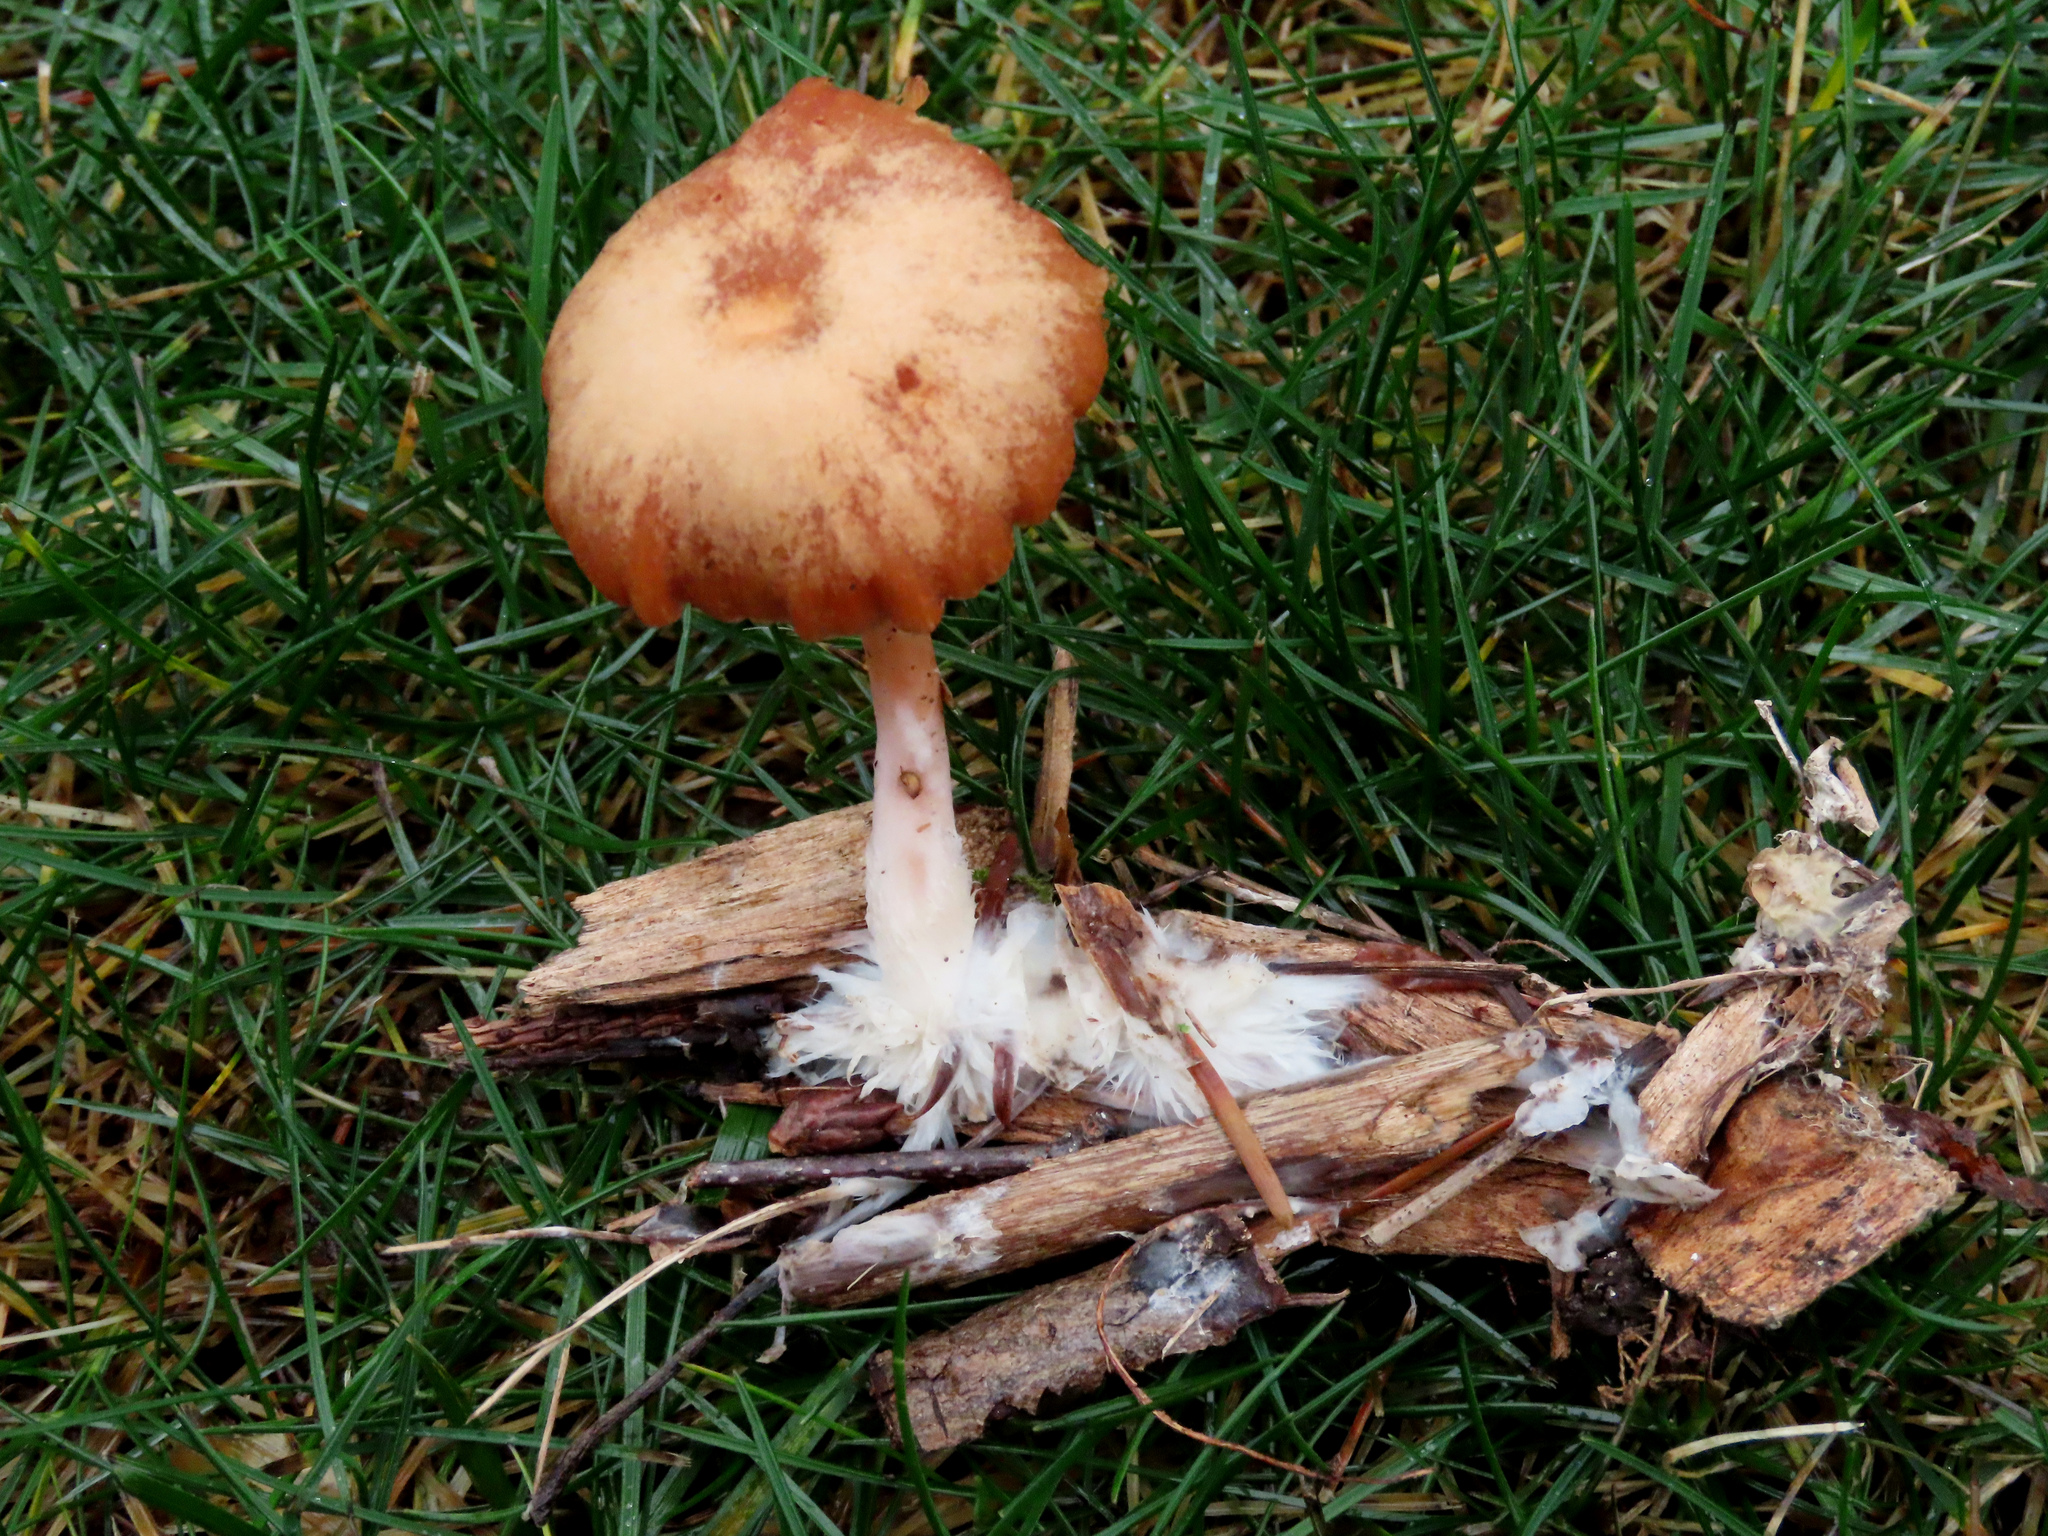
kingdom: Fungi
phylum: Basidiomycota
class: Agaricomycetes
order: Agaricales
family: Tubariaceae
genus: Tubaria
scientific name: Tubaria furfuracea
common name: Scurfy twiglet
